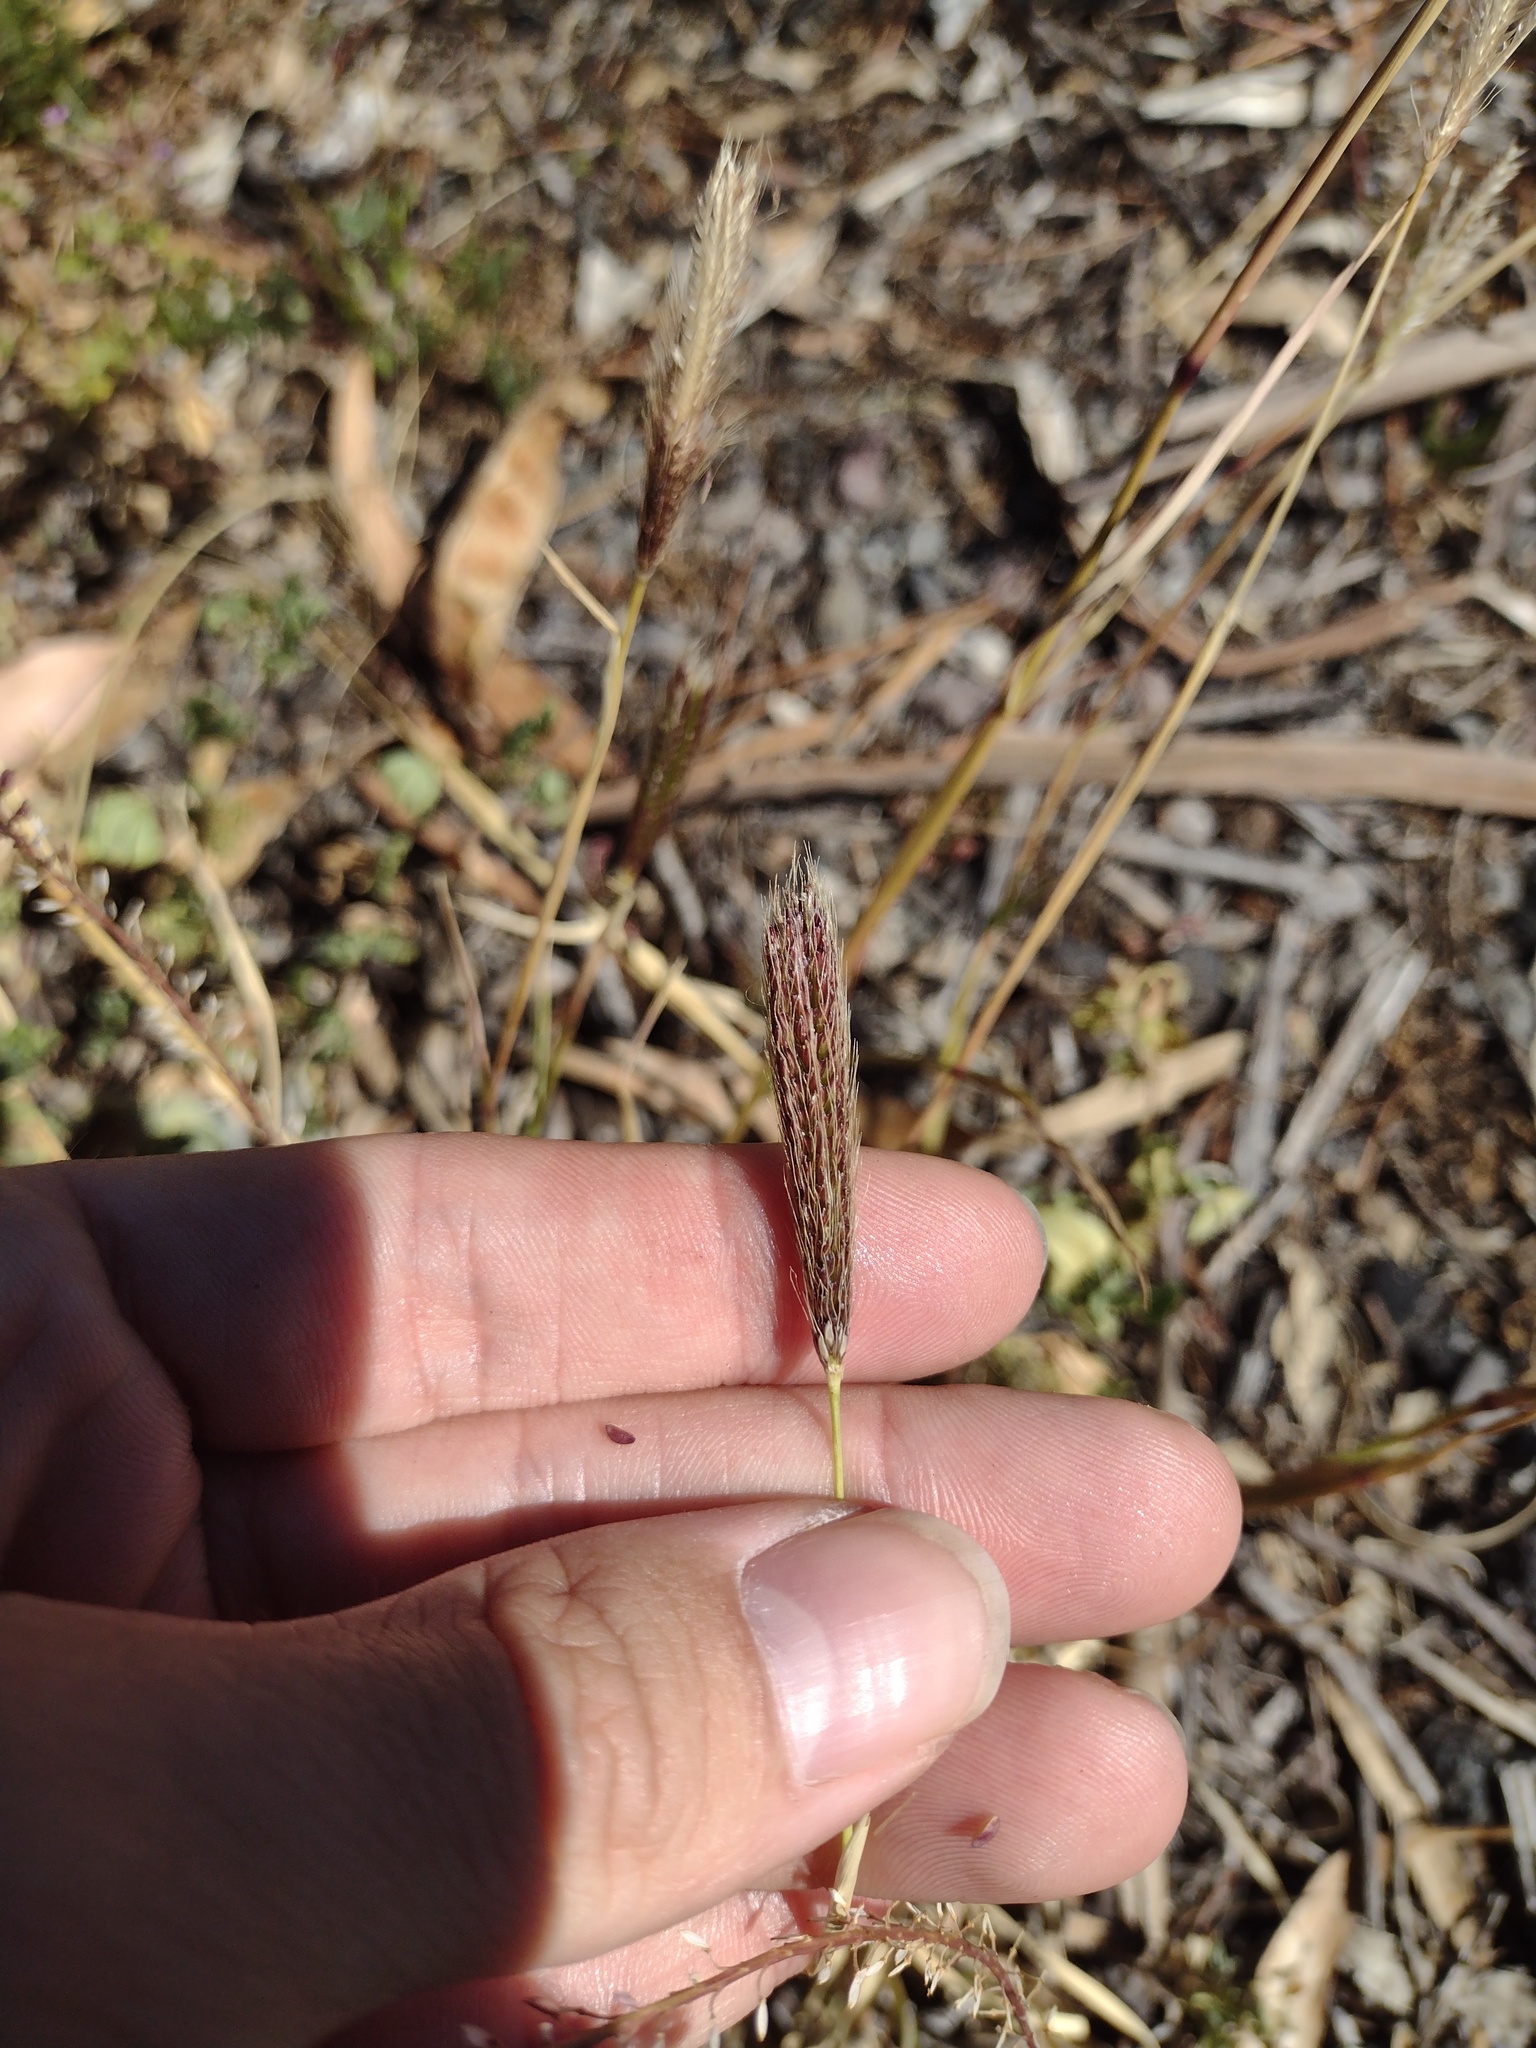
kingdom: Plantae
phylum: Tracheophyta
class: Liliopsida
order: Poales
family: Poaceae
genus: Chloris
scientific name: Chloris virgata
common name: Feathery rhodes-grass
